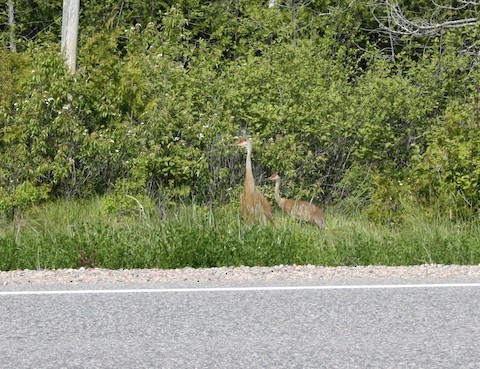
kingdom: Animalia
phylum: Chordata
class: Aves
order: Gruiformes
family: Gruidae
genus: Grus
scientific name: Grus canadensis
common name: Sandhill crane
